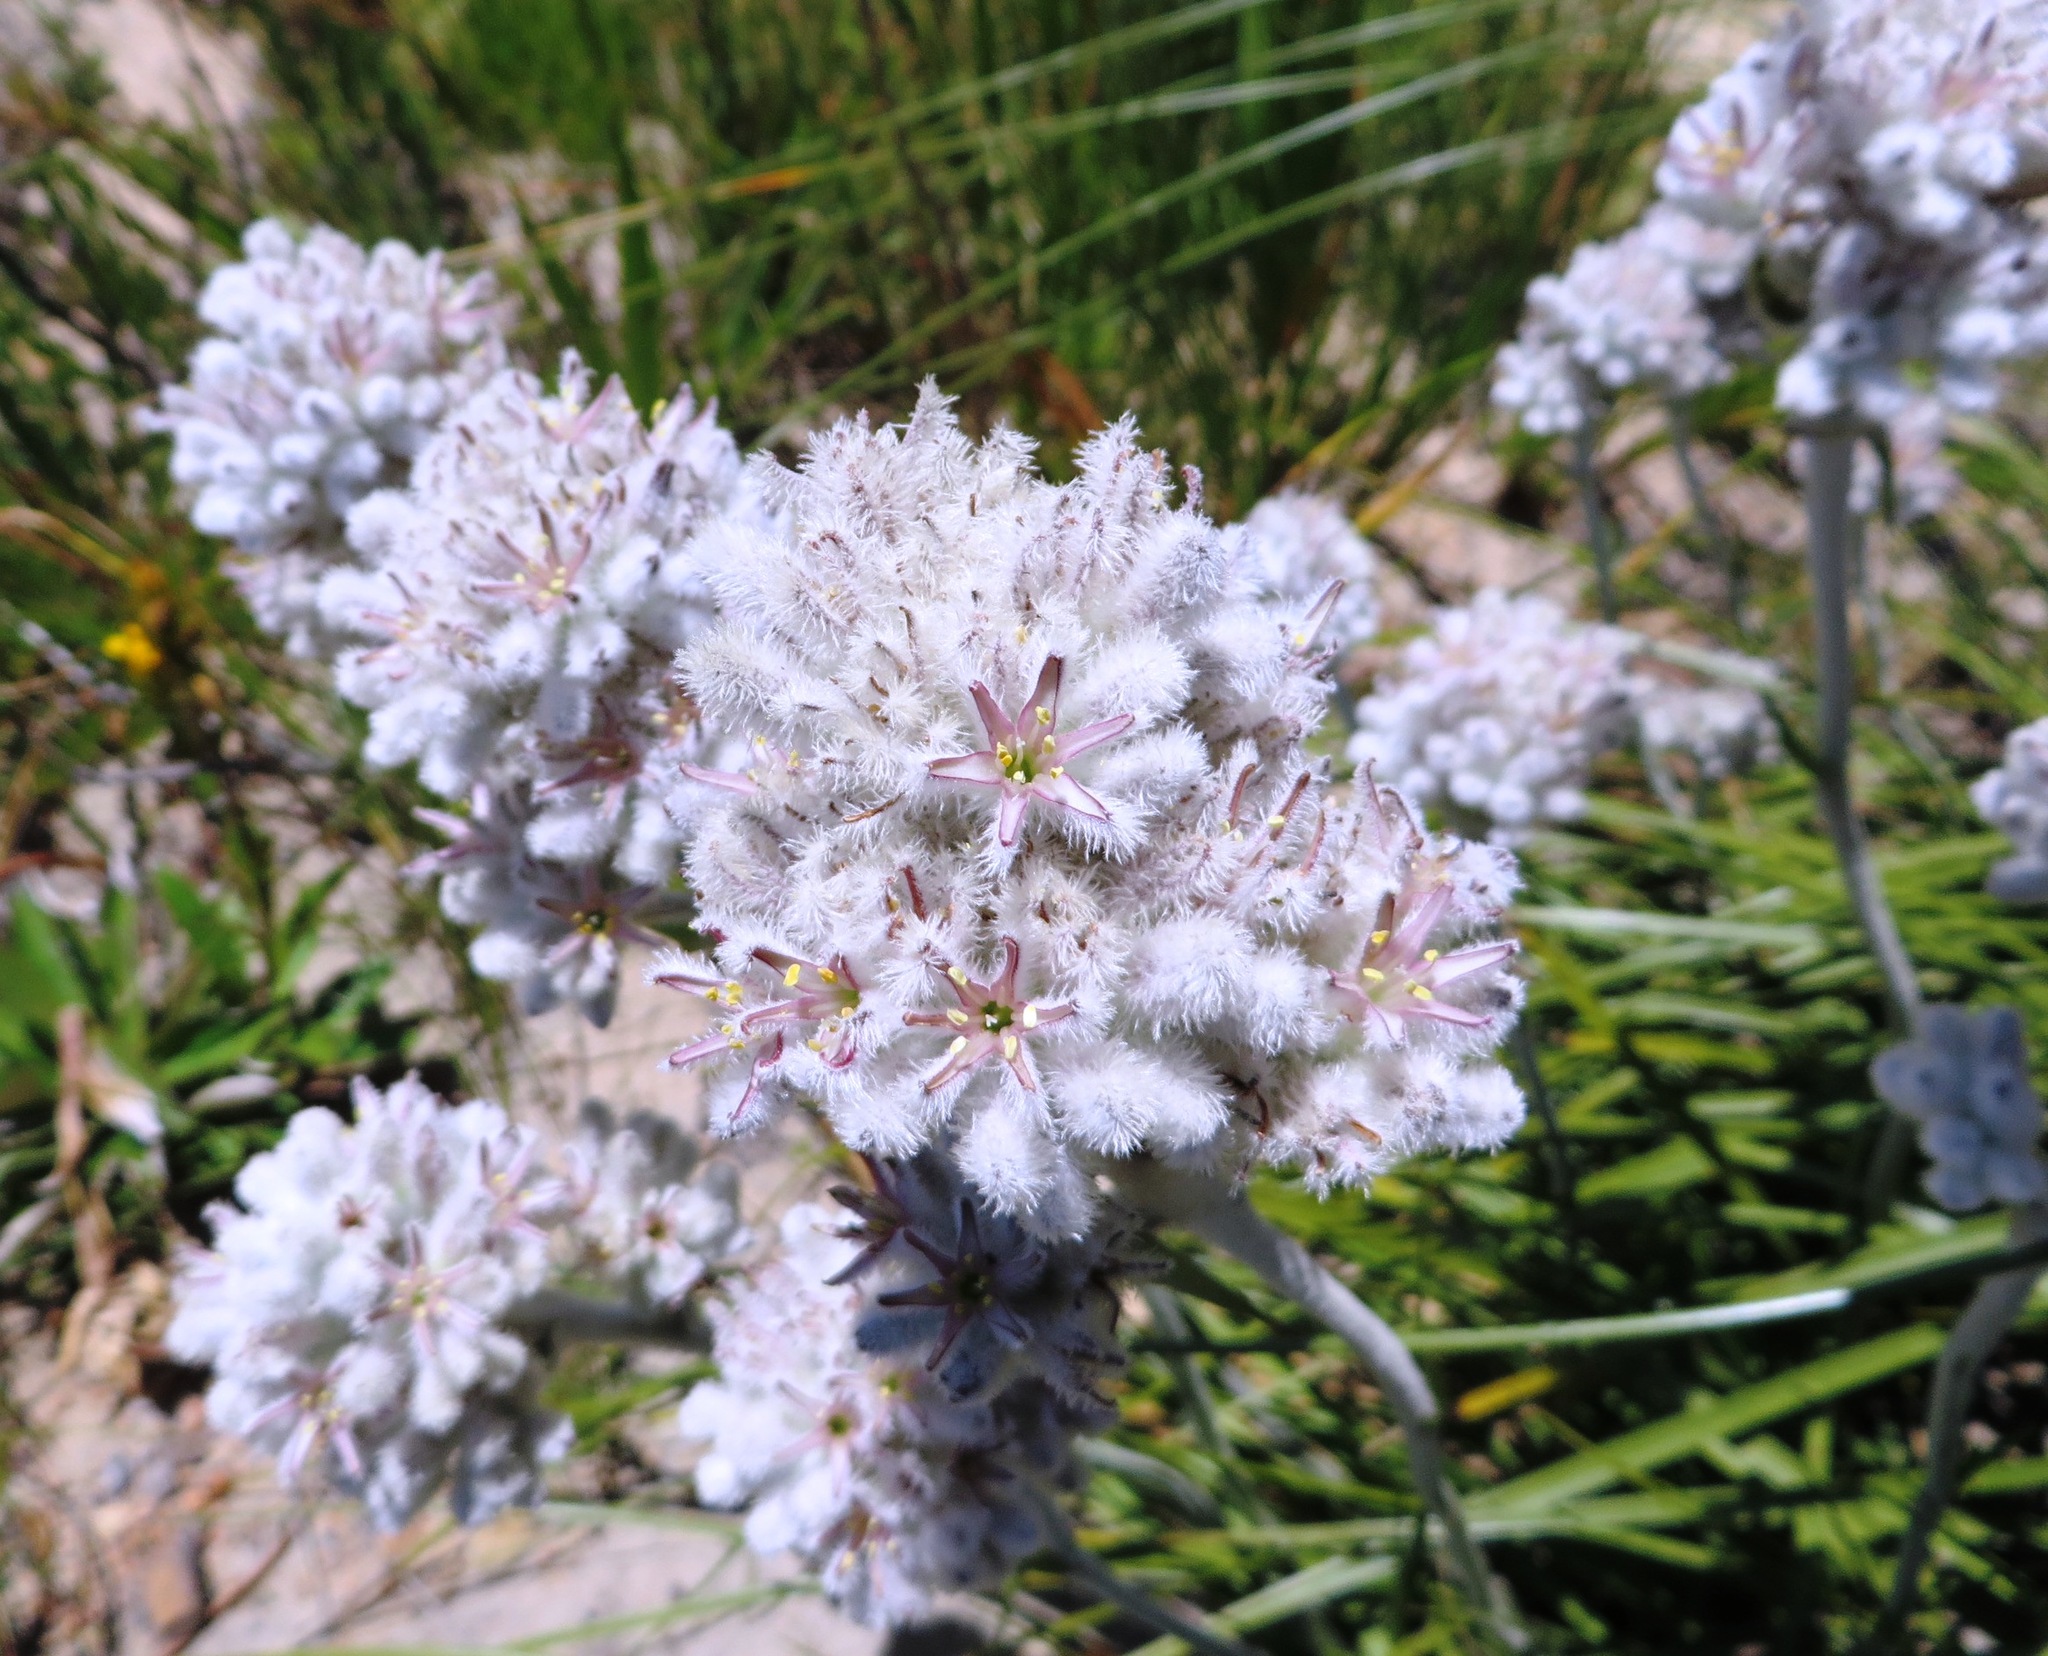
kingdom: Plantae
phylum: Tracheophyta
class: Liliopsida
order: Asparagales
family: Lanariaceae
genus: Lanaria
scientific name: Lanaria lanata
